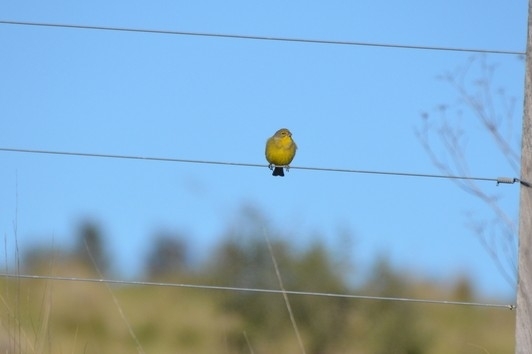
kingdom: Animalia
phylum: Chordata
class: Aves
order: Passeriformes
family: Thraupidae
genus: Sicalis
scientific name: Sicalis luteola
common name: Grassland yellow-finch
